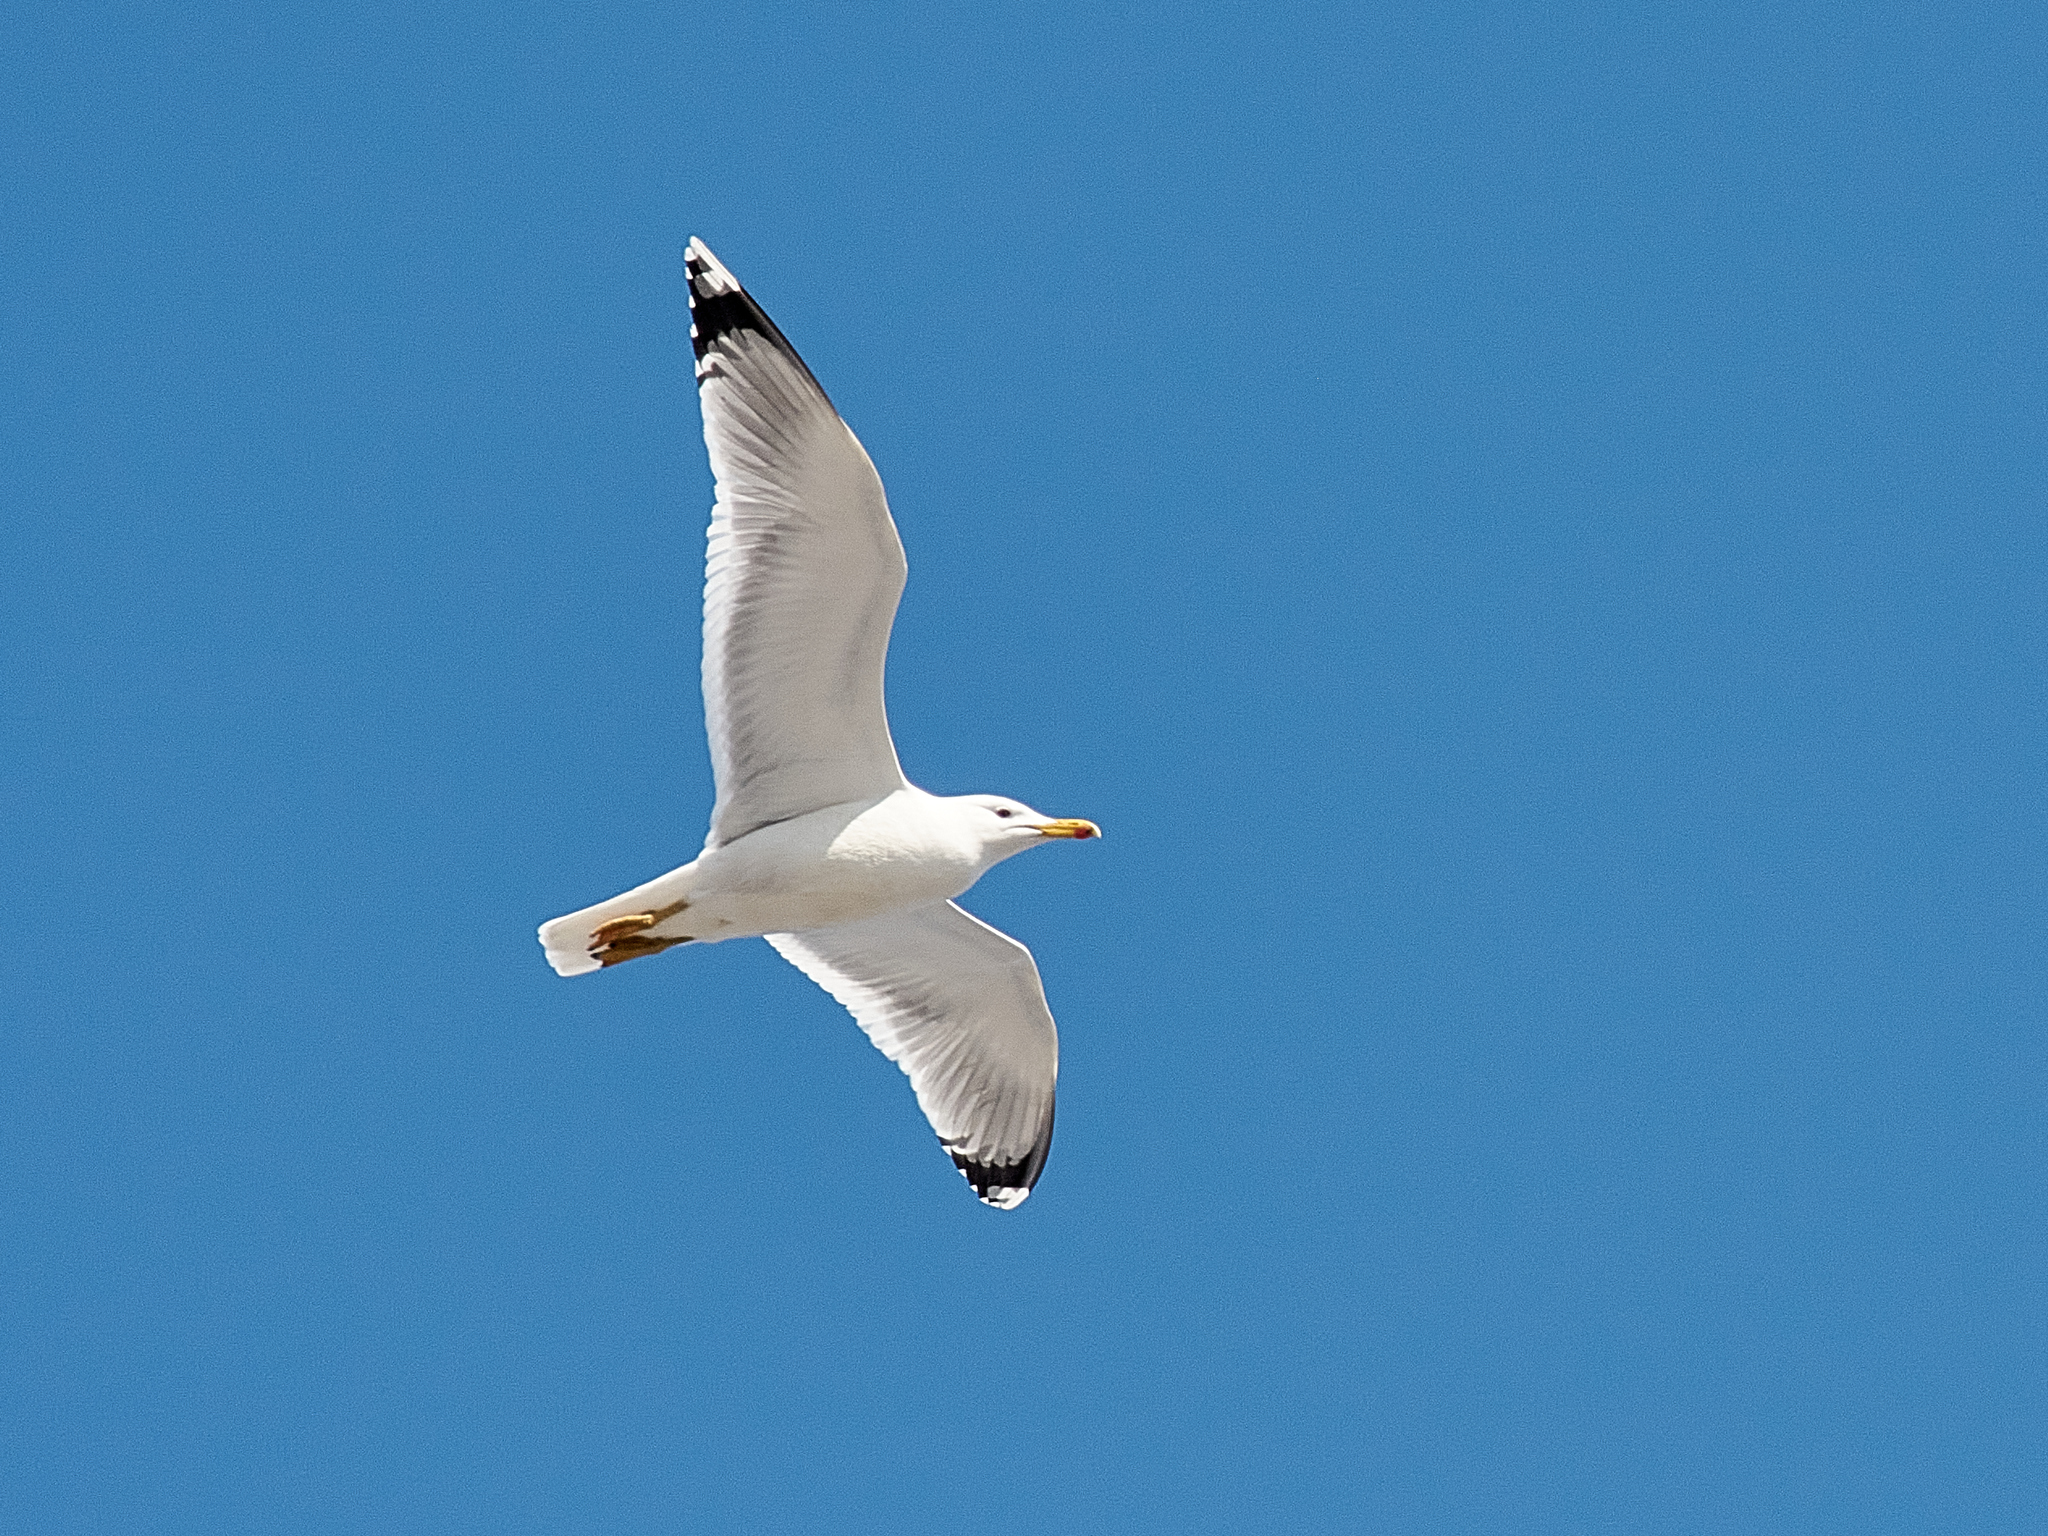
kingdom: Animalia
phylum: Chordata
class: Aves
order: Charadriiformes
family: Laridae
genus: Larus
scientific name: Larus cachinnans
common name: Caspian gull
